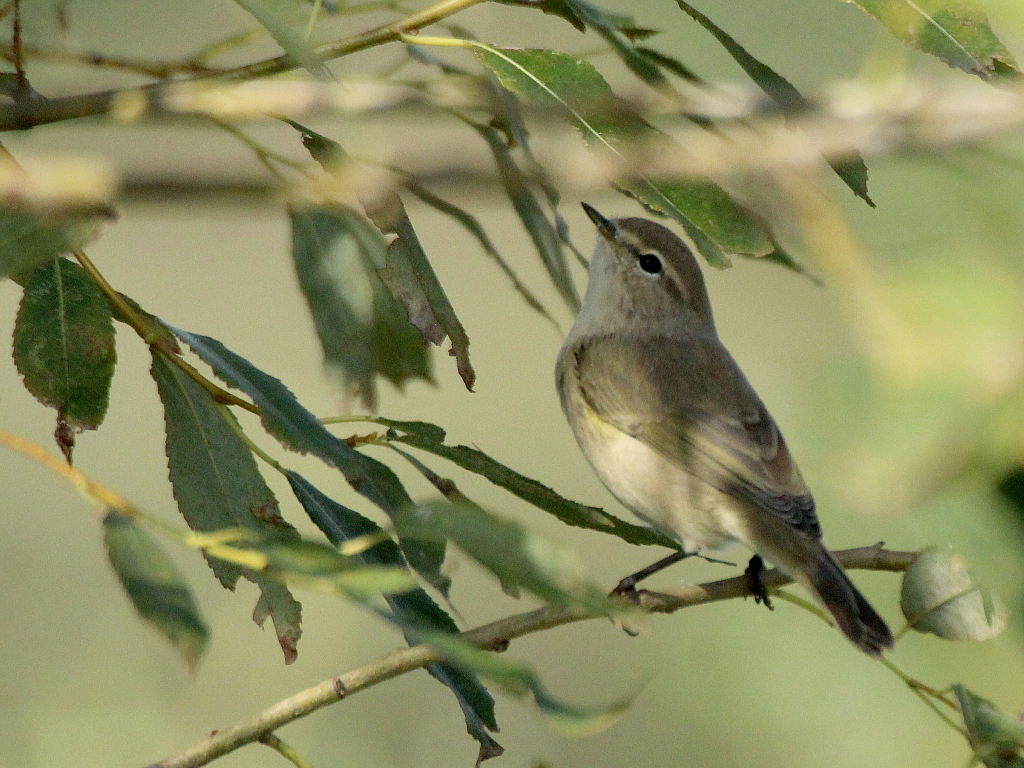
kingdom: Animalia
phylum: Chordata
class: Aves
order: Passeriformes
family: Phylloscopidae
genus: Phylloscopus
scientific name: Phylloscopus collybita
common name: Common chiffchaff
